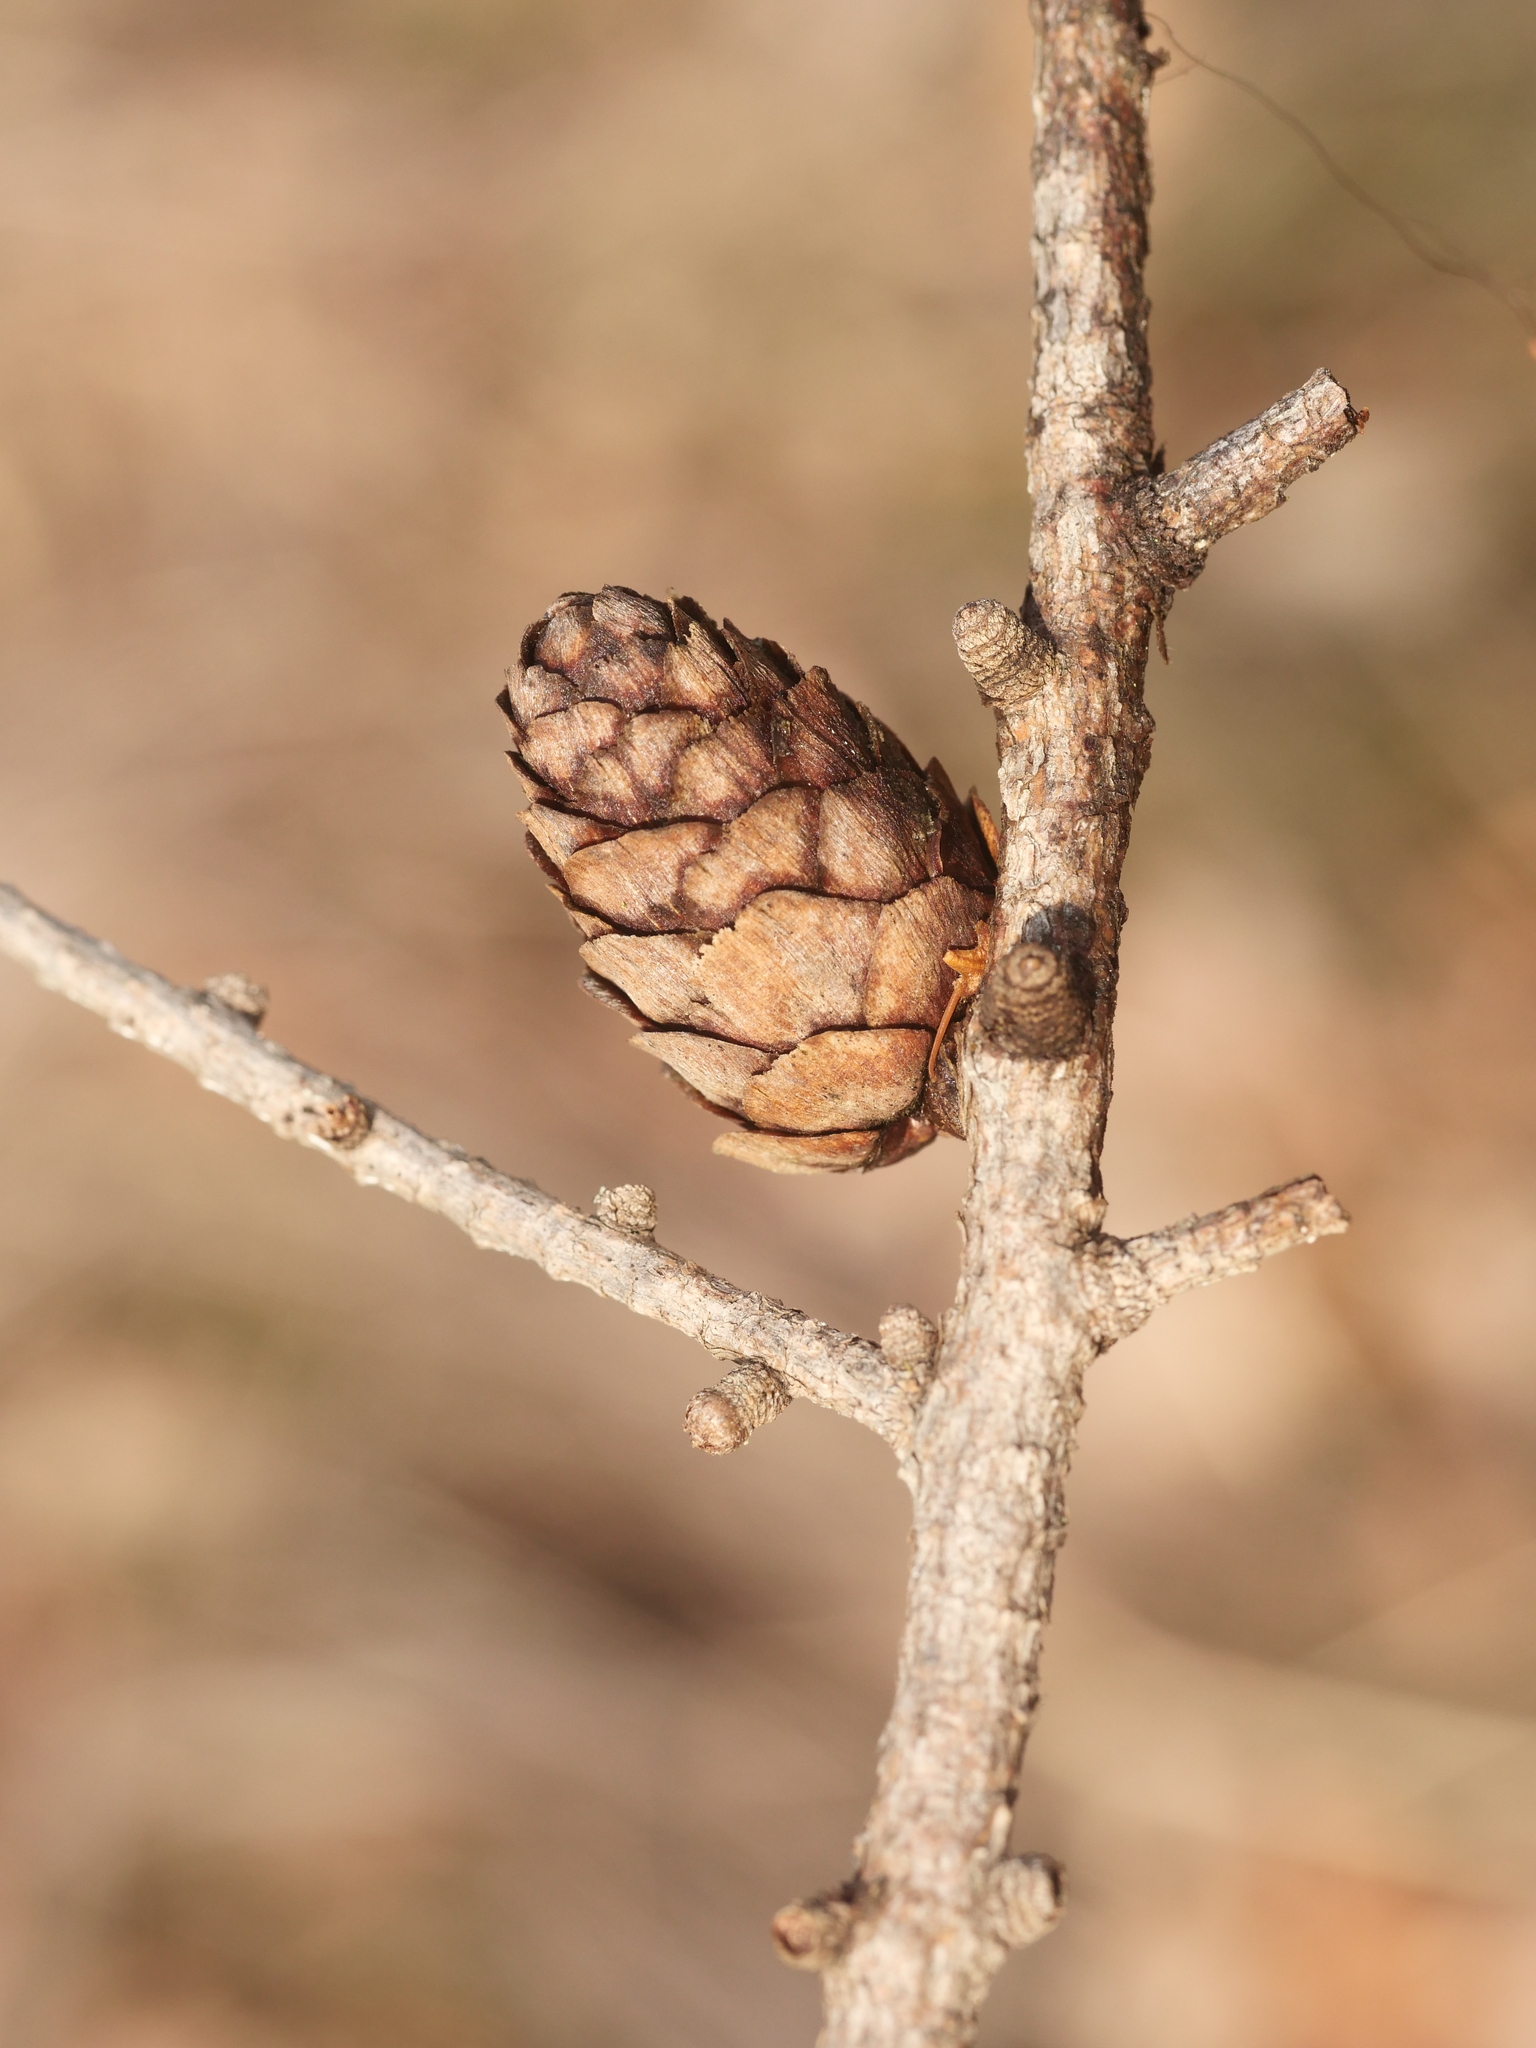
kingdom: Plantae
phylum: Tracheophyta
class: Pinopsida
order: Pinales
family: Pinaceae
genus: Larix
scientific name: Larix decidua
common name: European larch
